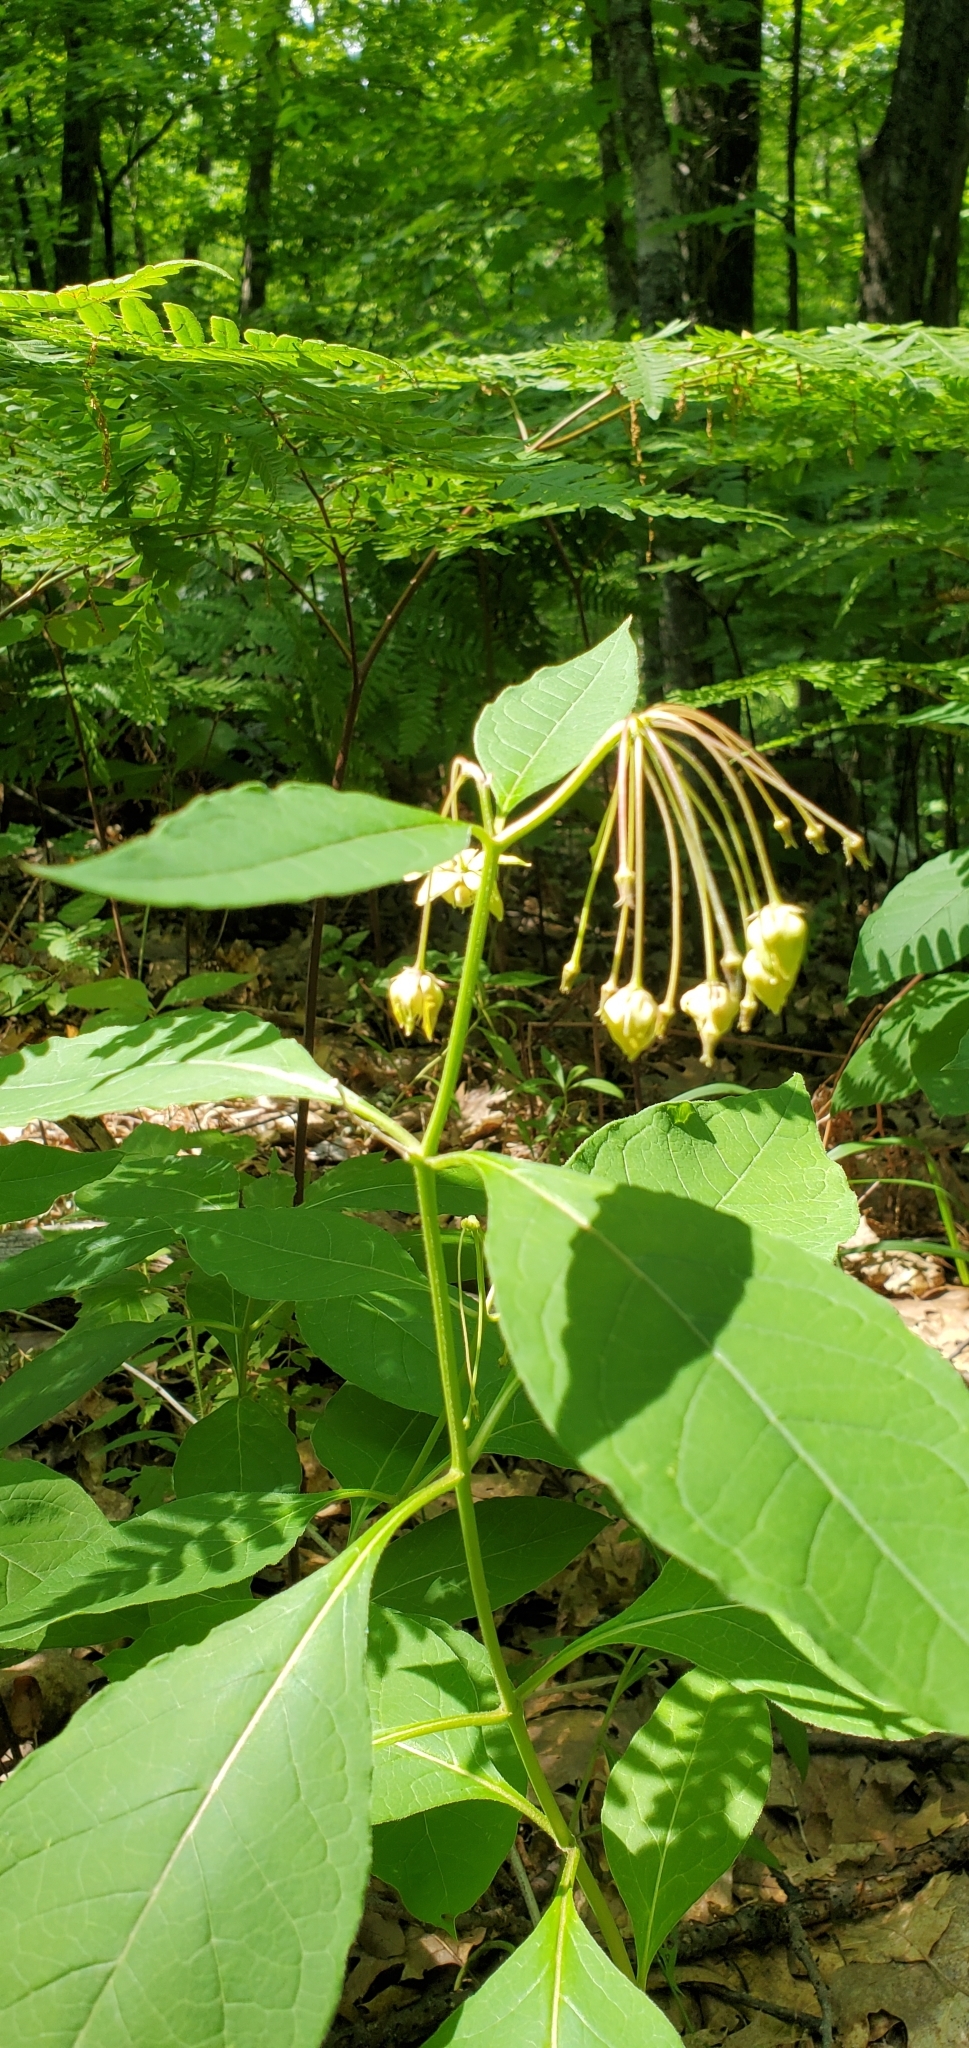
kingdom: Plantae
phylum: Tracheophyta
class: Magnoliopsida
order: Gentianales
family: Apocynaceae
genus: Asclepias
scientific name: Asclepias exaltata
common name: Poke milkweed
